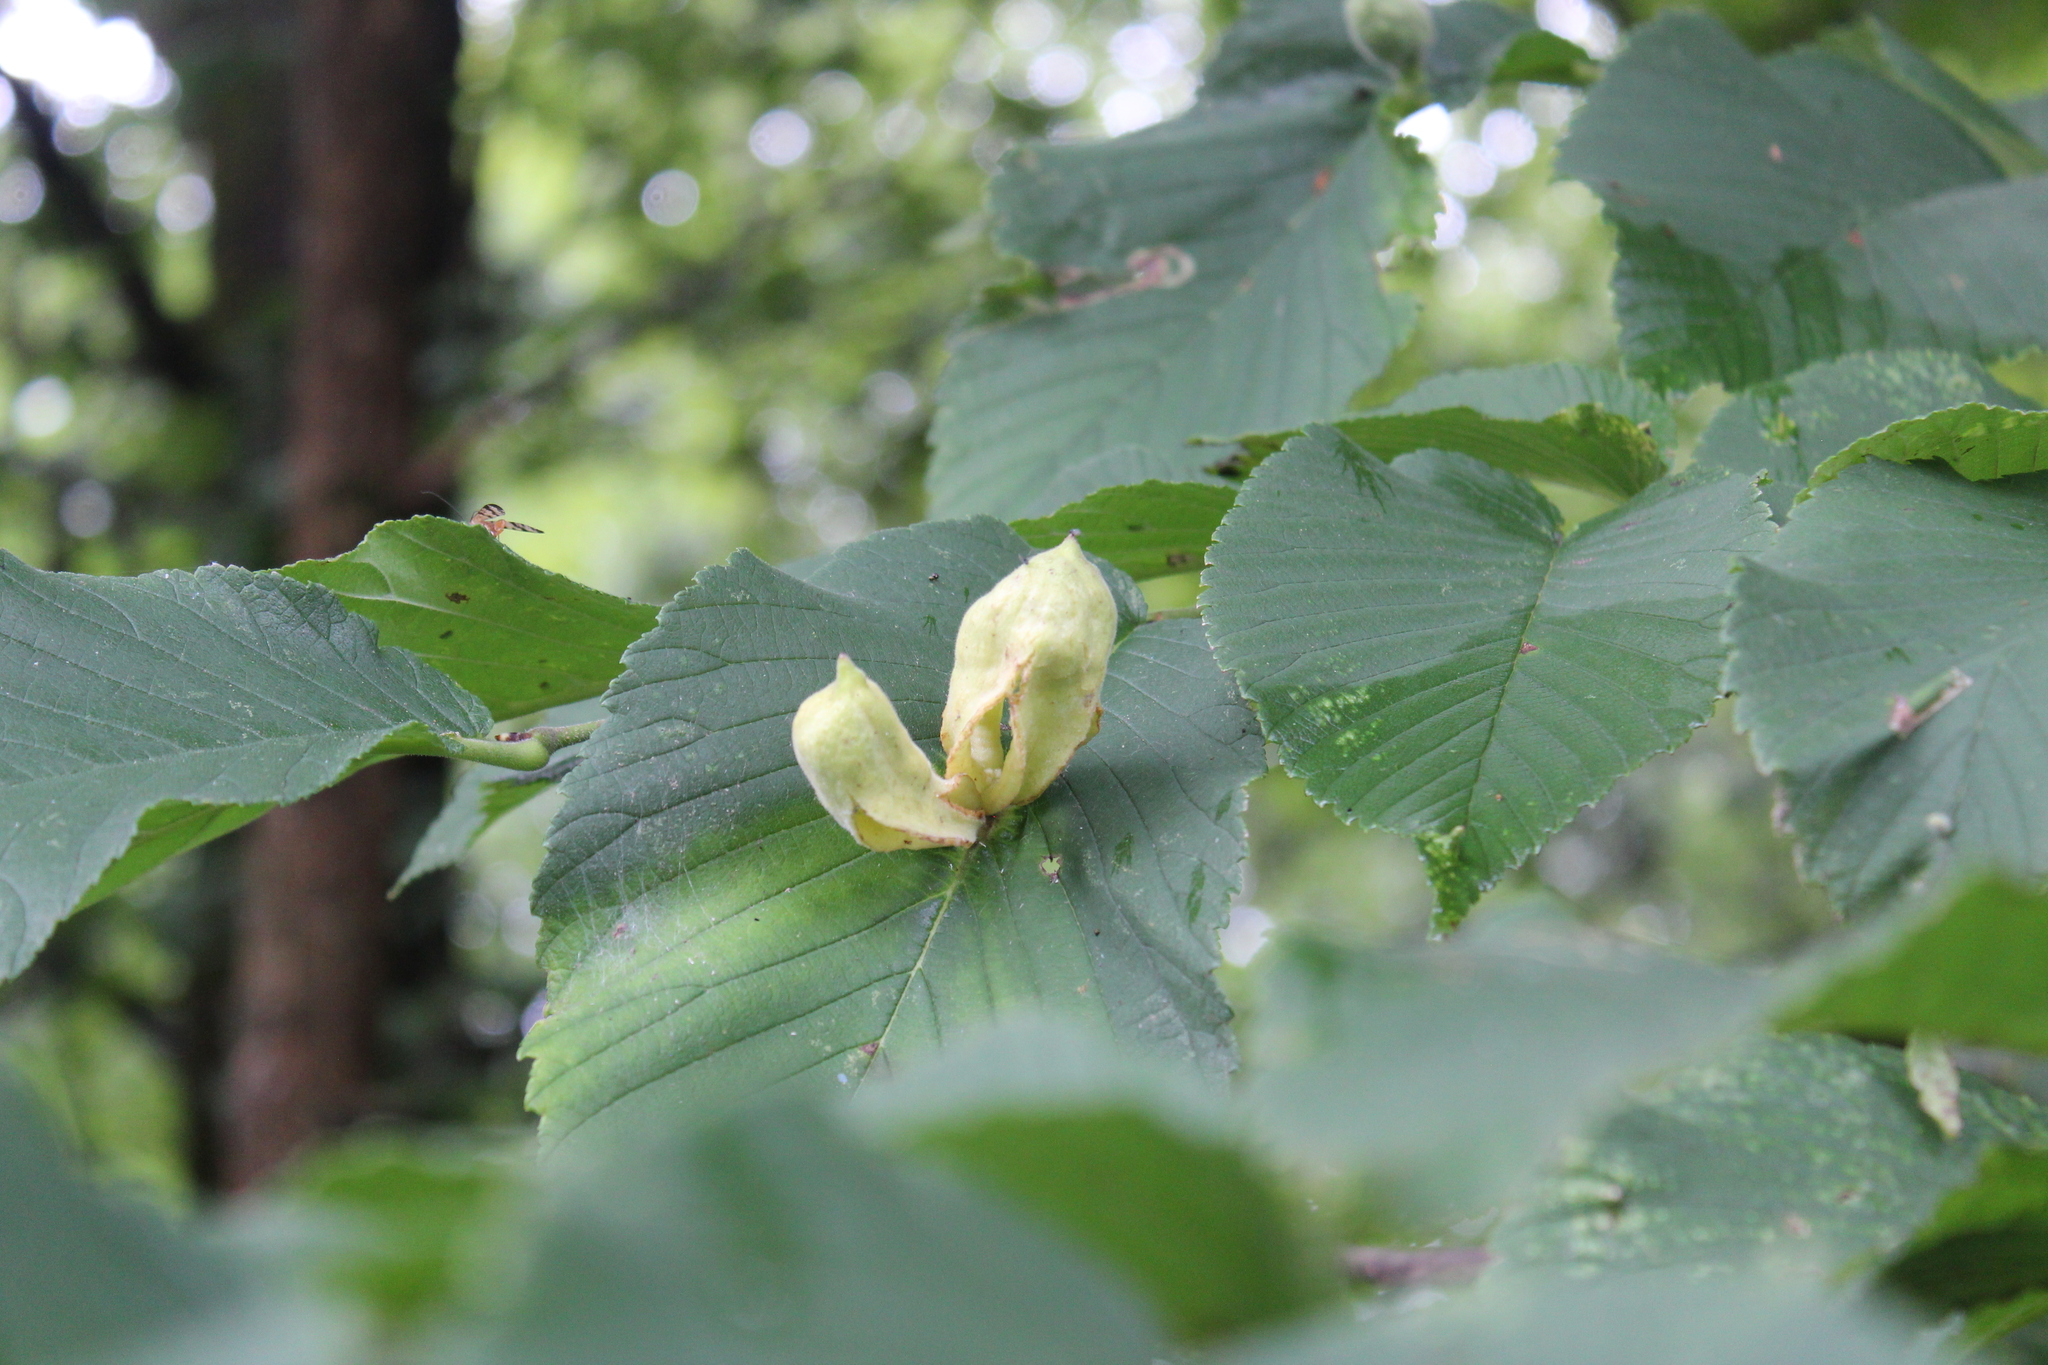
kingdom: Animalia
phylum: Arthropoda
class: Insecta
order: Hemiptera
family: Aphididae
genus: Kaltenbachiella
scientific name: Kaltenbachiella ulmifusa
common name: Elm pouchgall aphid
